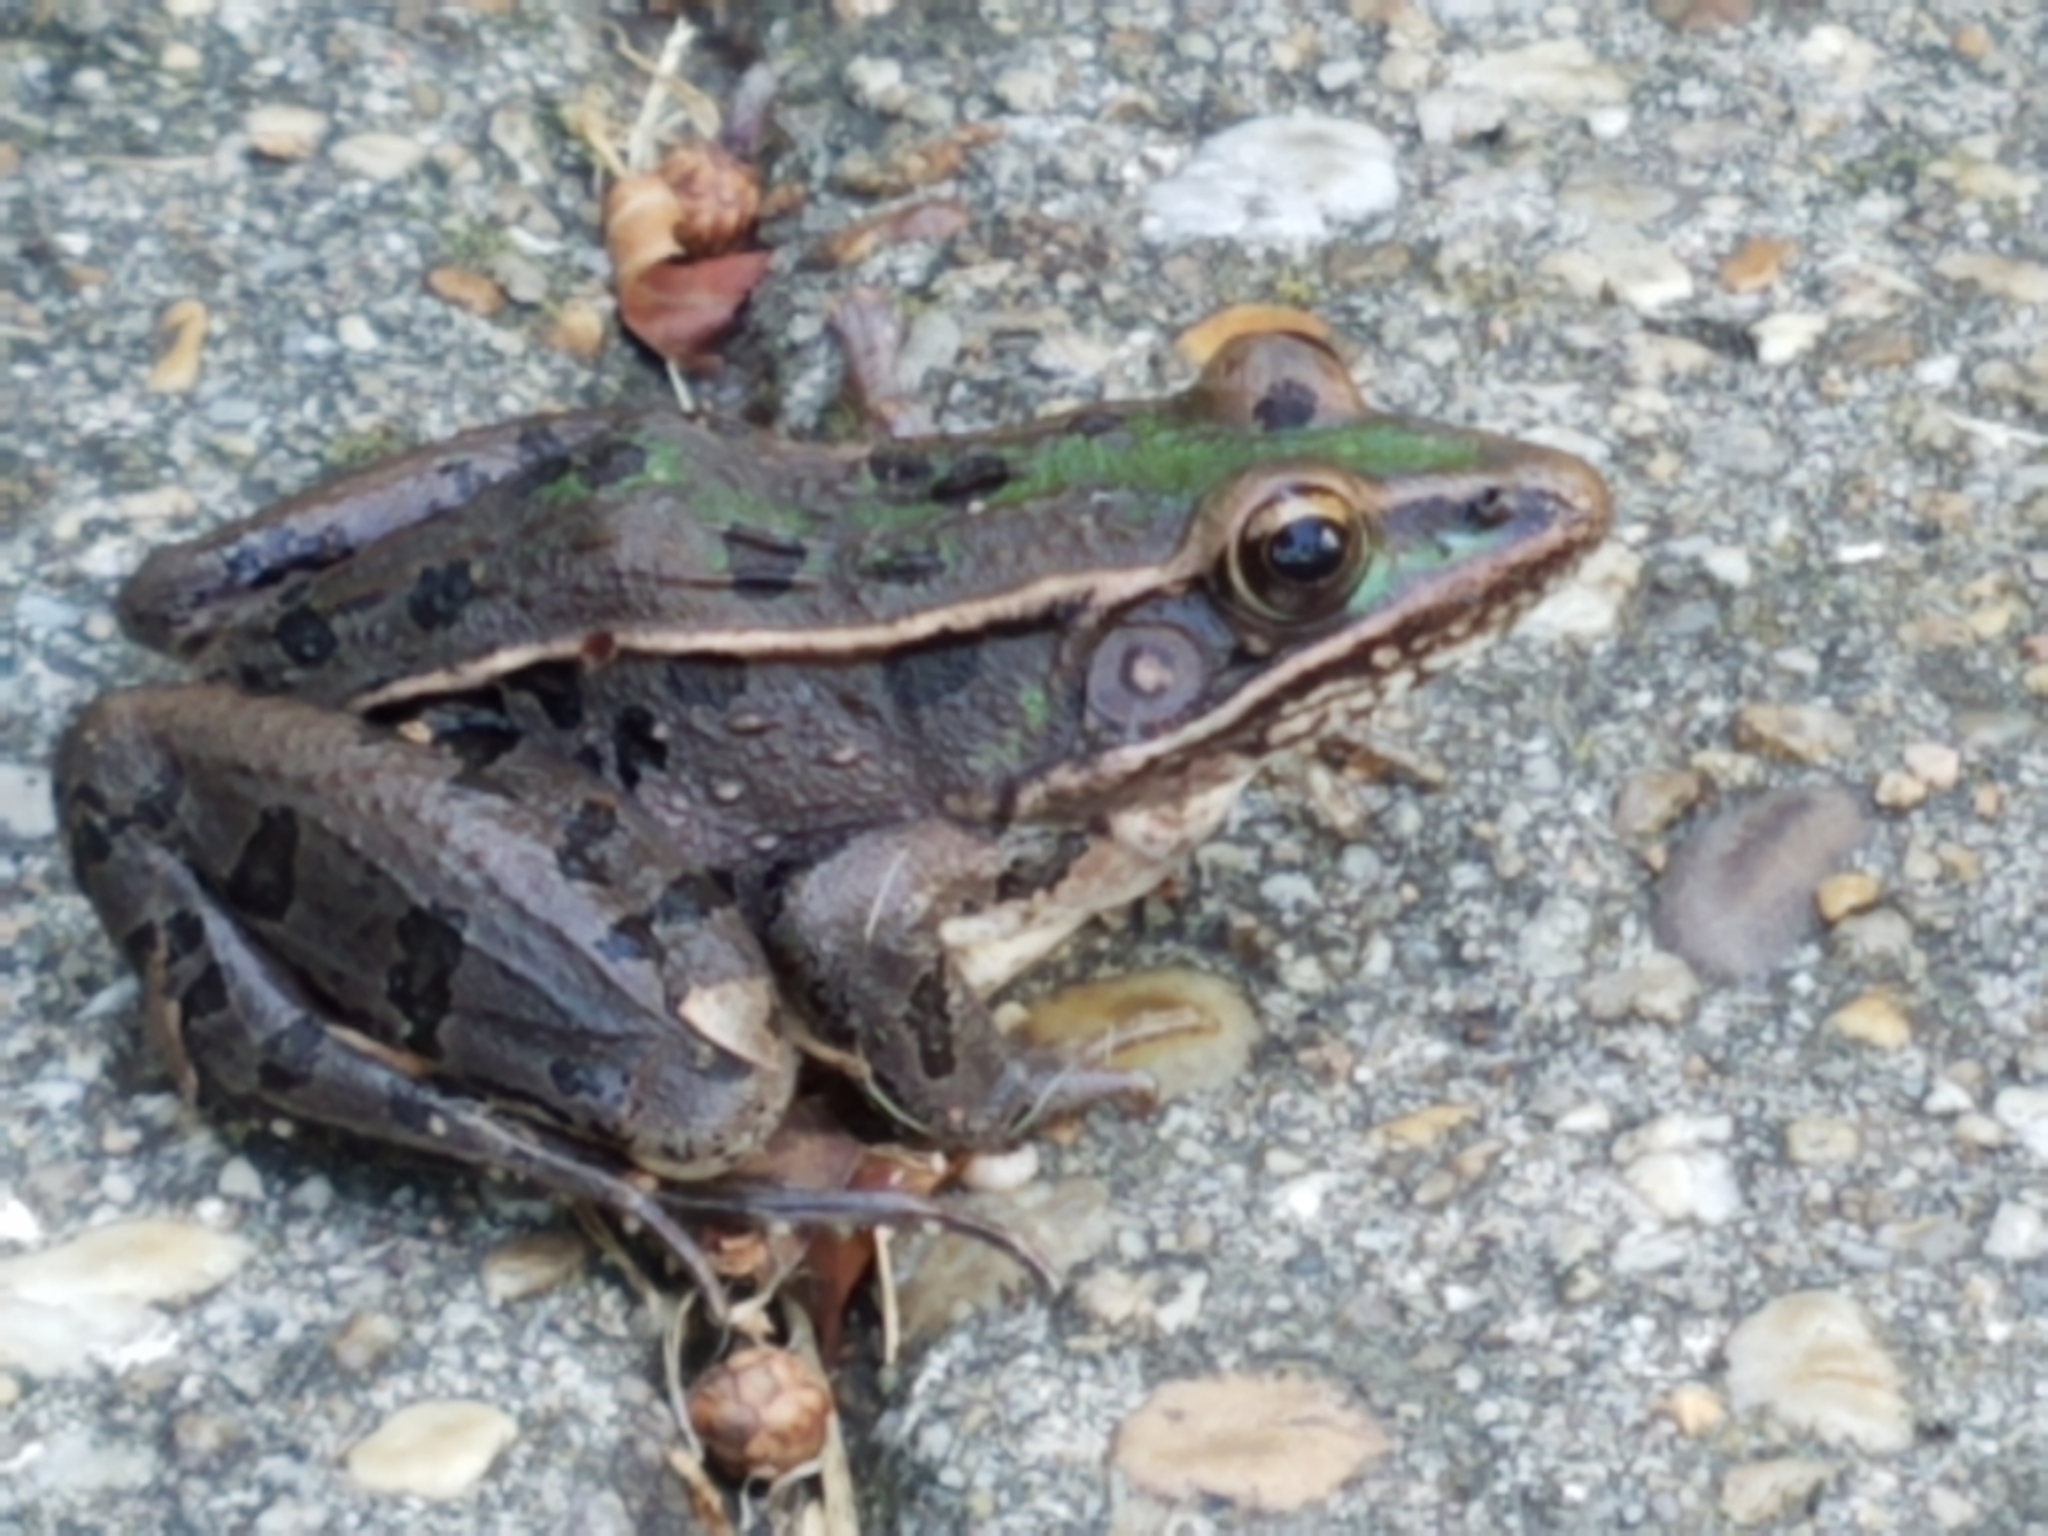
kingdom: Animalia
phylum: Chordata
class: Amphibia
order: Anura
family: Ranidae
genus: Lithobates
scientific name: Lithobates sphenocephalus
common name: Southern leopard frog
